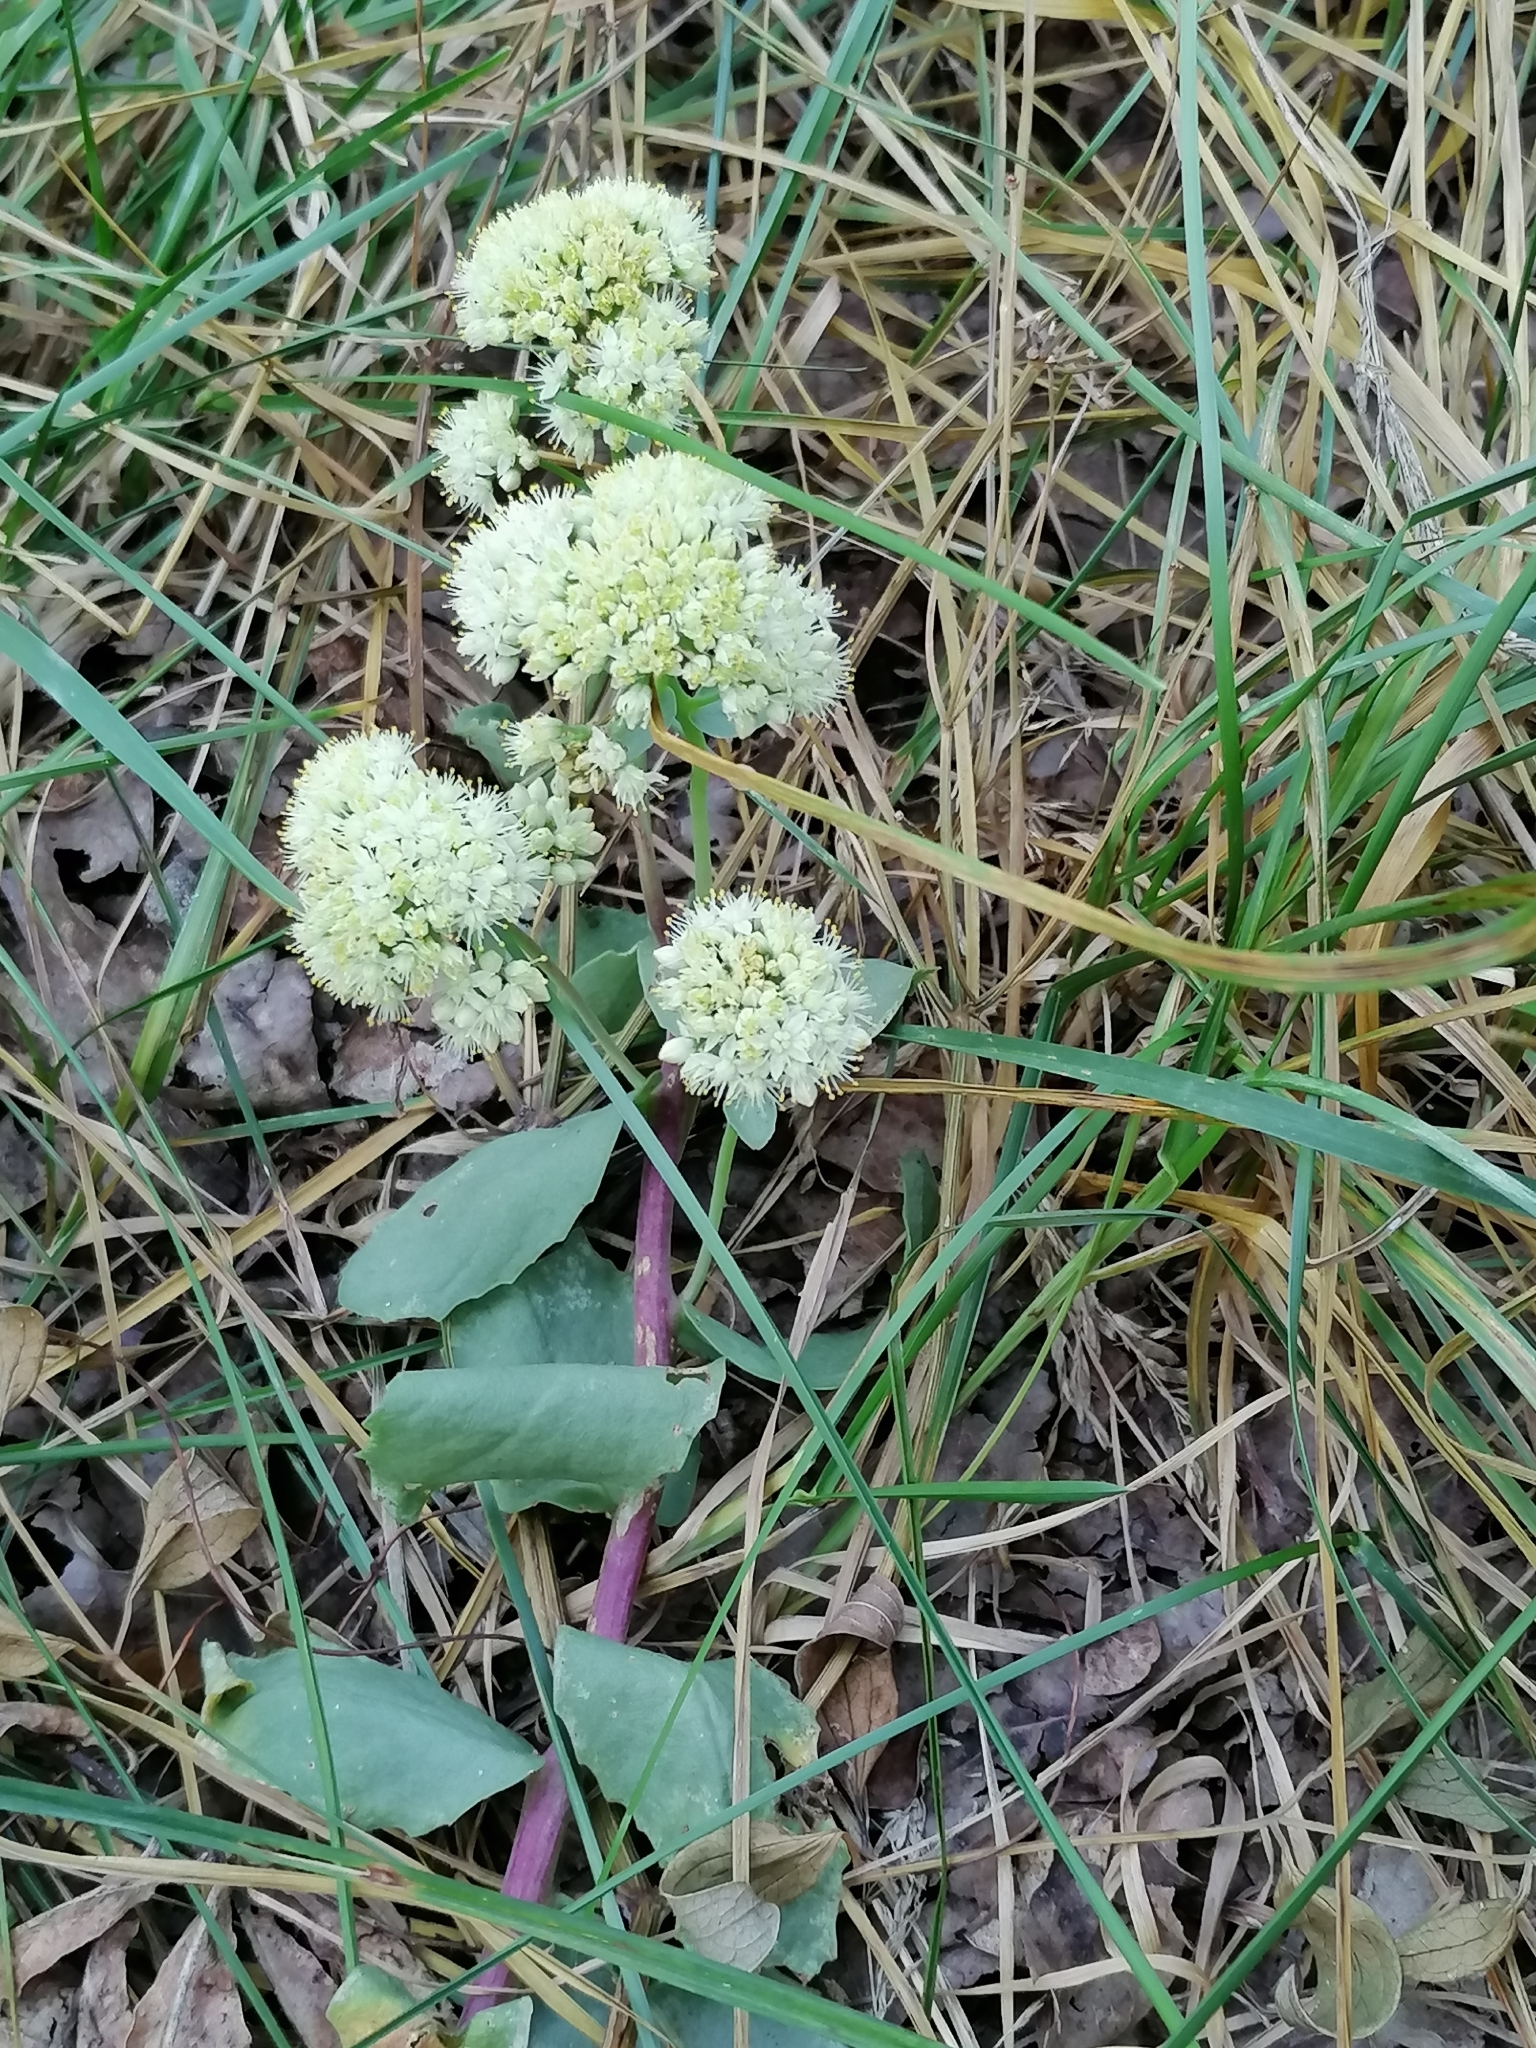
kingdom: Plantae
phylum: Tracheophyta
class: Magnoliopsida
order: Saxifragales
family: Crassulaceae
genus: Hylotelephium
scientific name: Hylotelephium maximum
